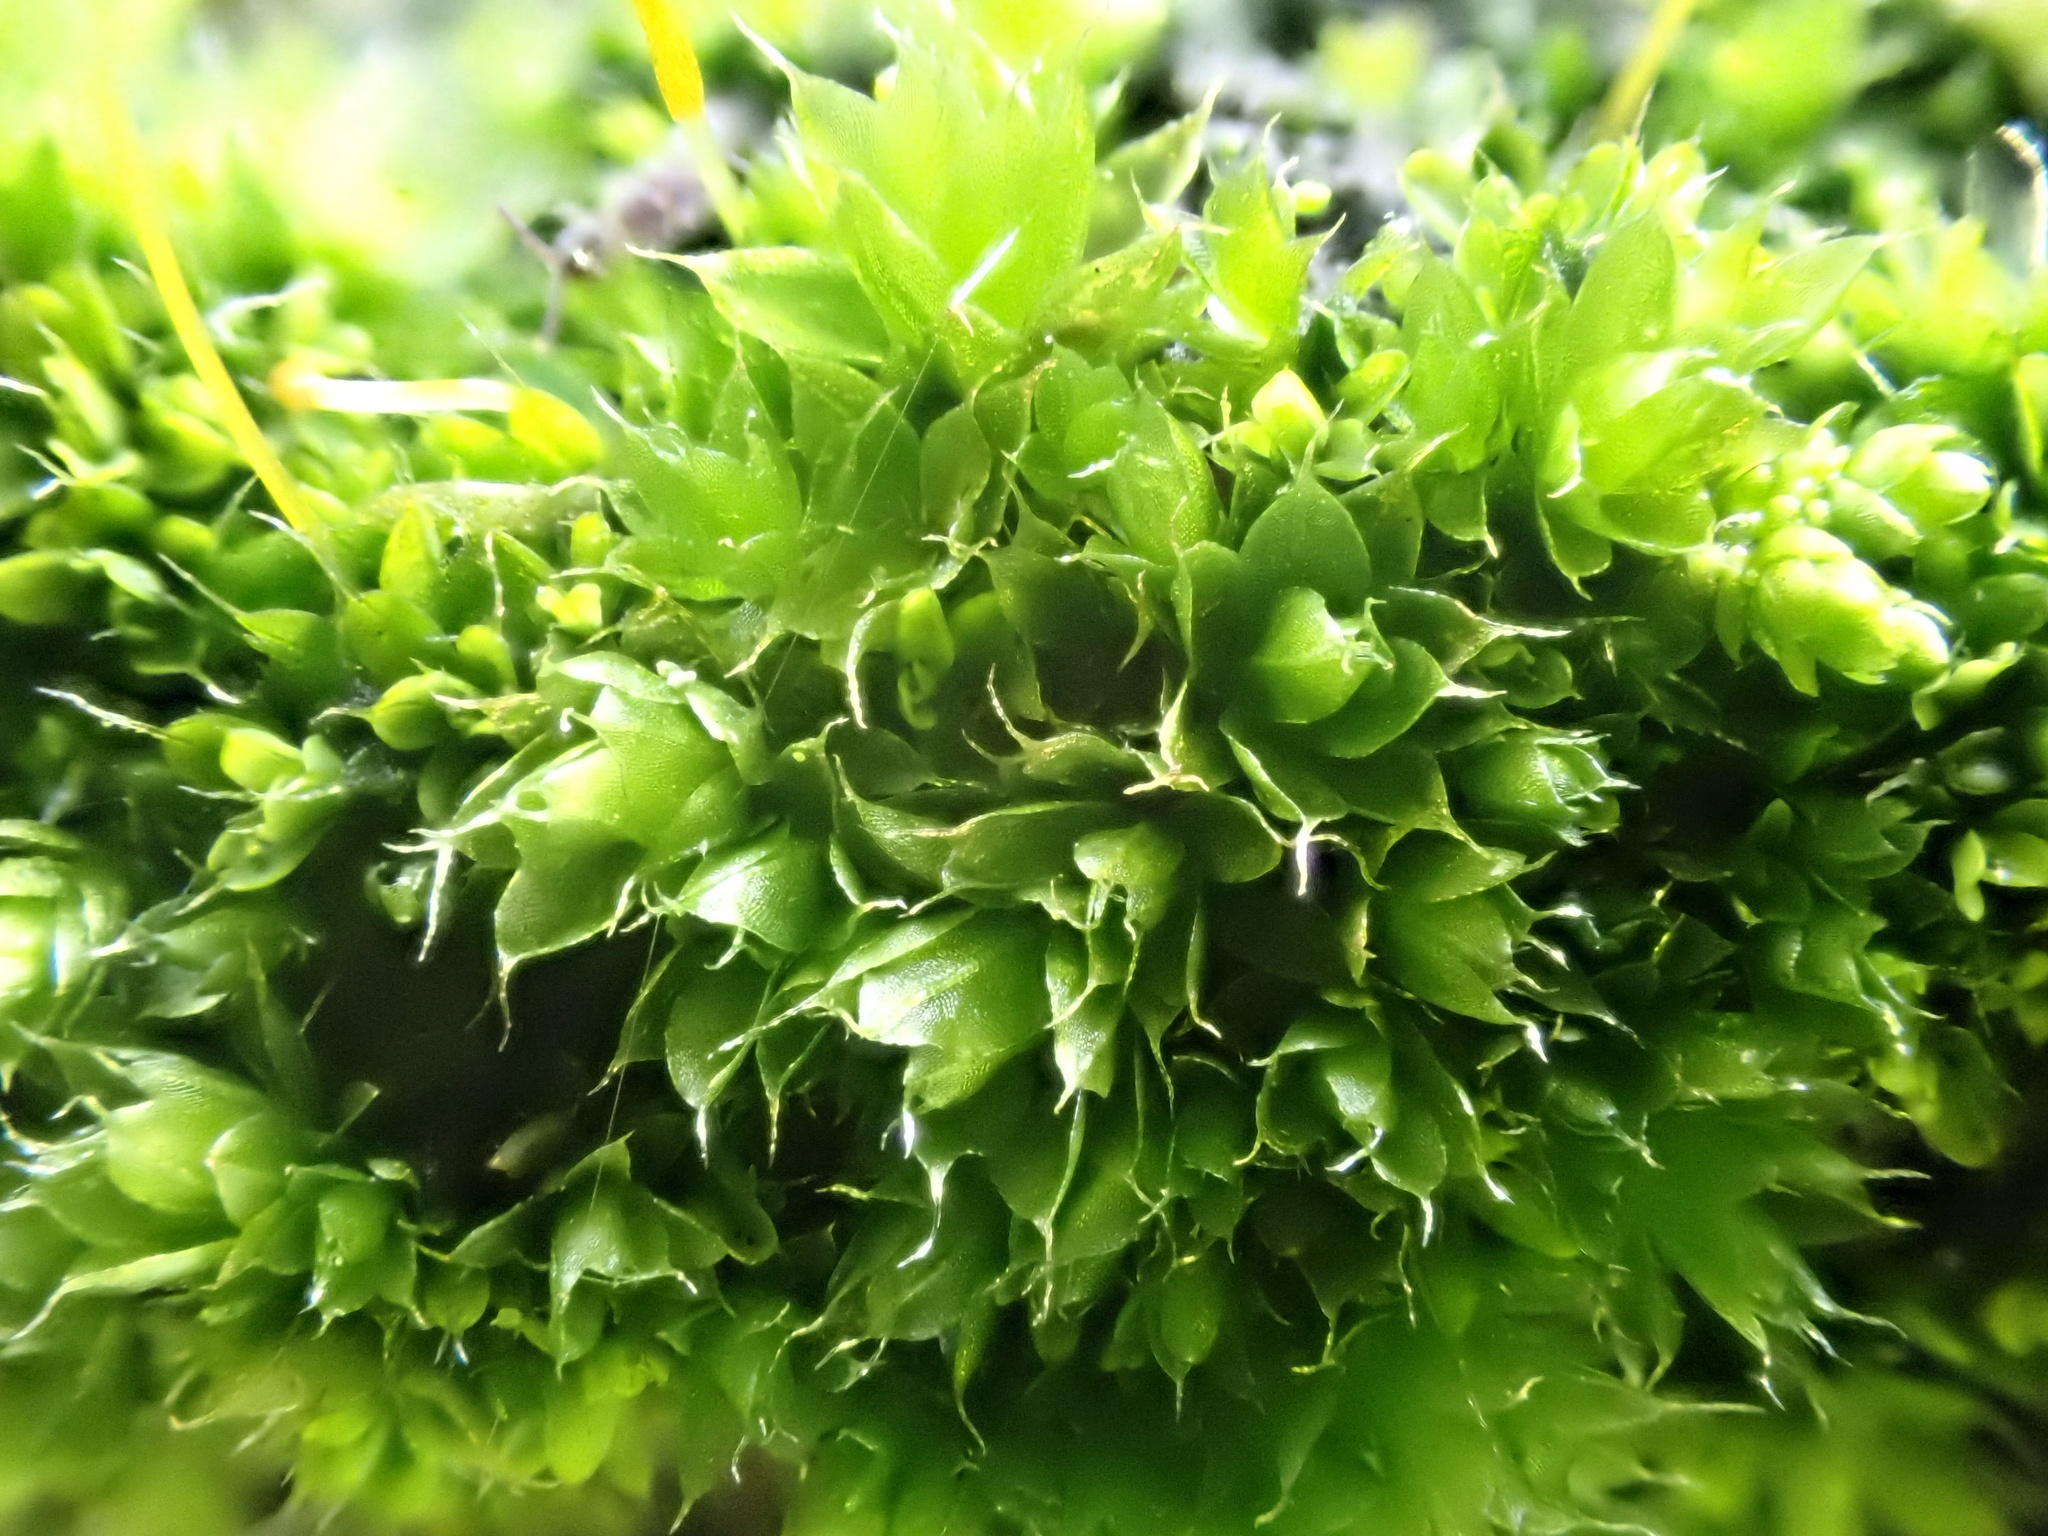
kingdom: Plantae
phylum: Bryophyta
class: Bryopsida
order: Bryales
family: Bryaceae
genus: Rosulabryum
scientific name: Rosulabryum capillare
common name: Capillary thread-moss
